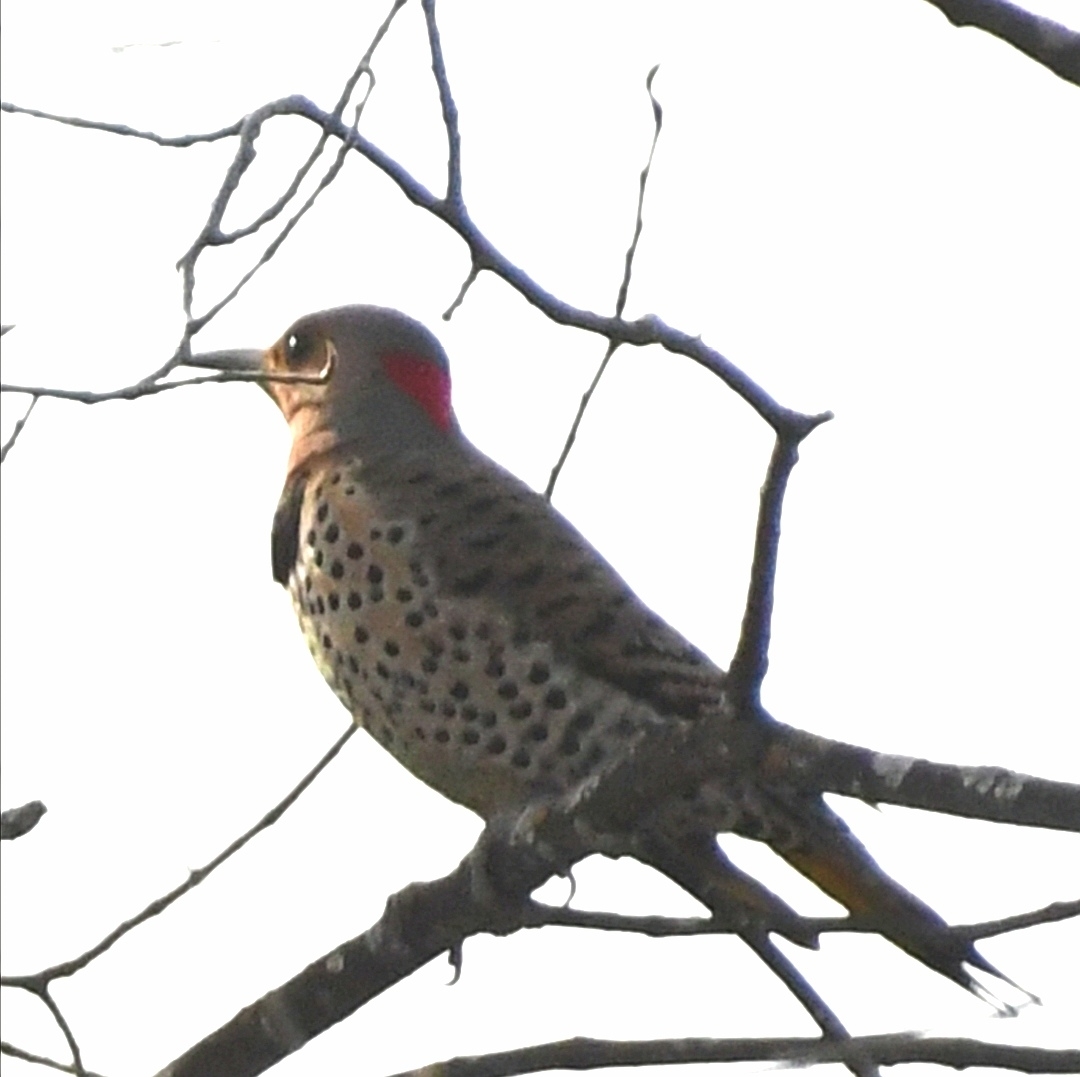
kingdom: Animalia
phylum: Chordata
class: Aves
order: Piciformes
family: Picidae
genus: Colaptes
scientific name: Colaptes auratus
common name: Northern flicker
